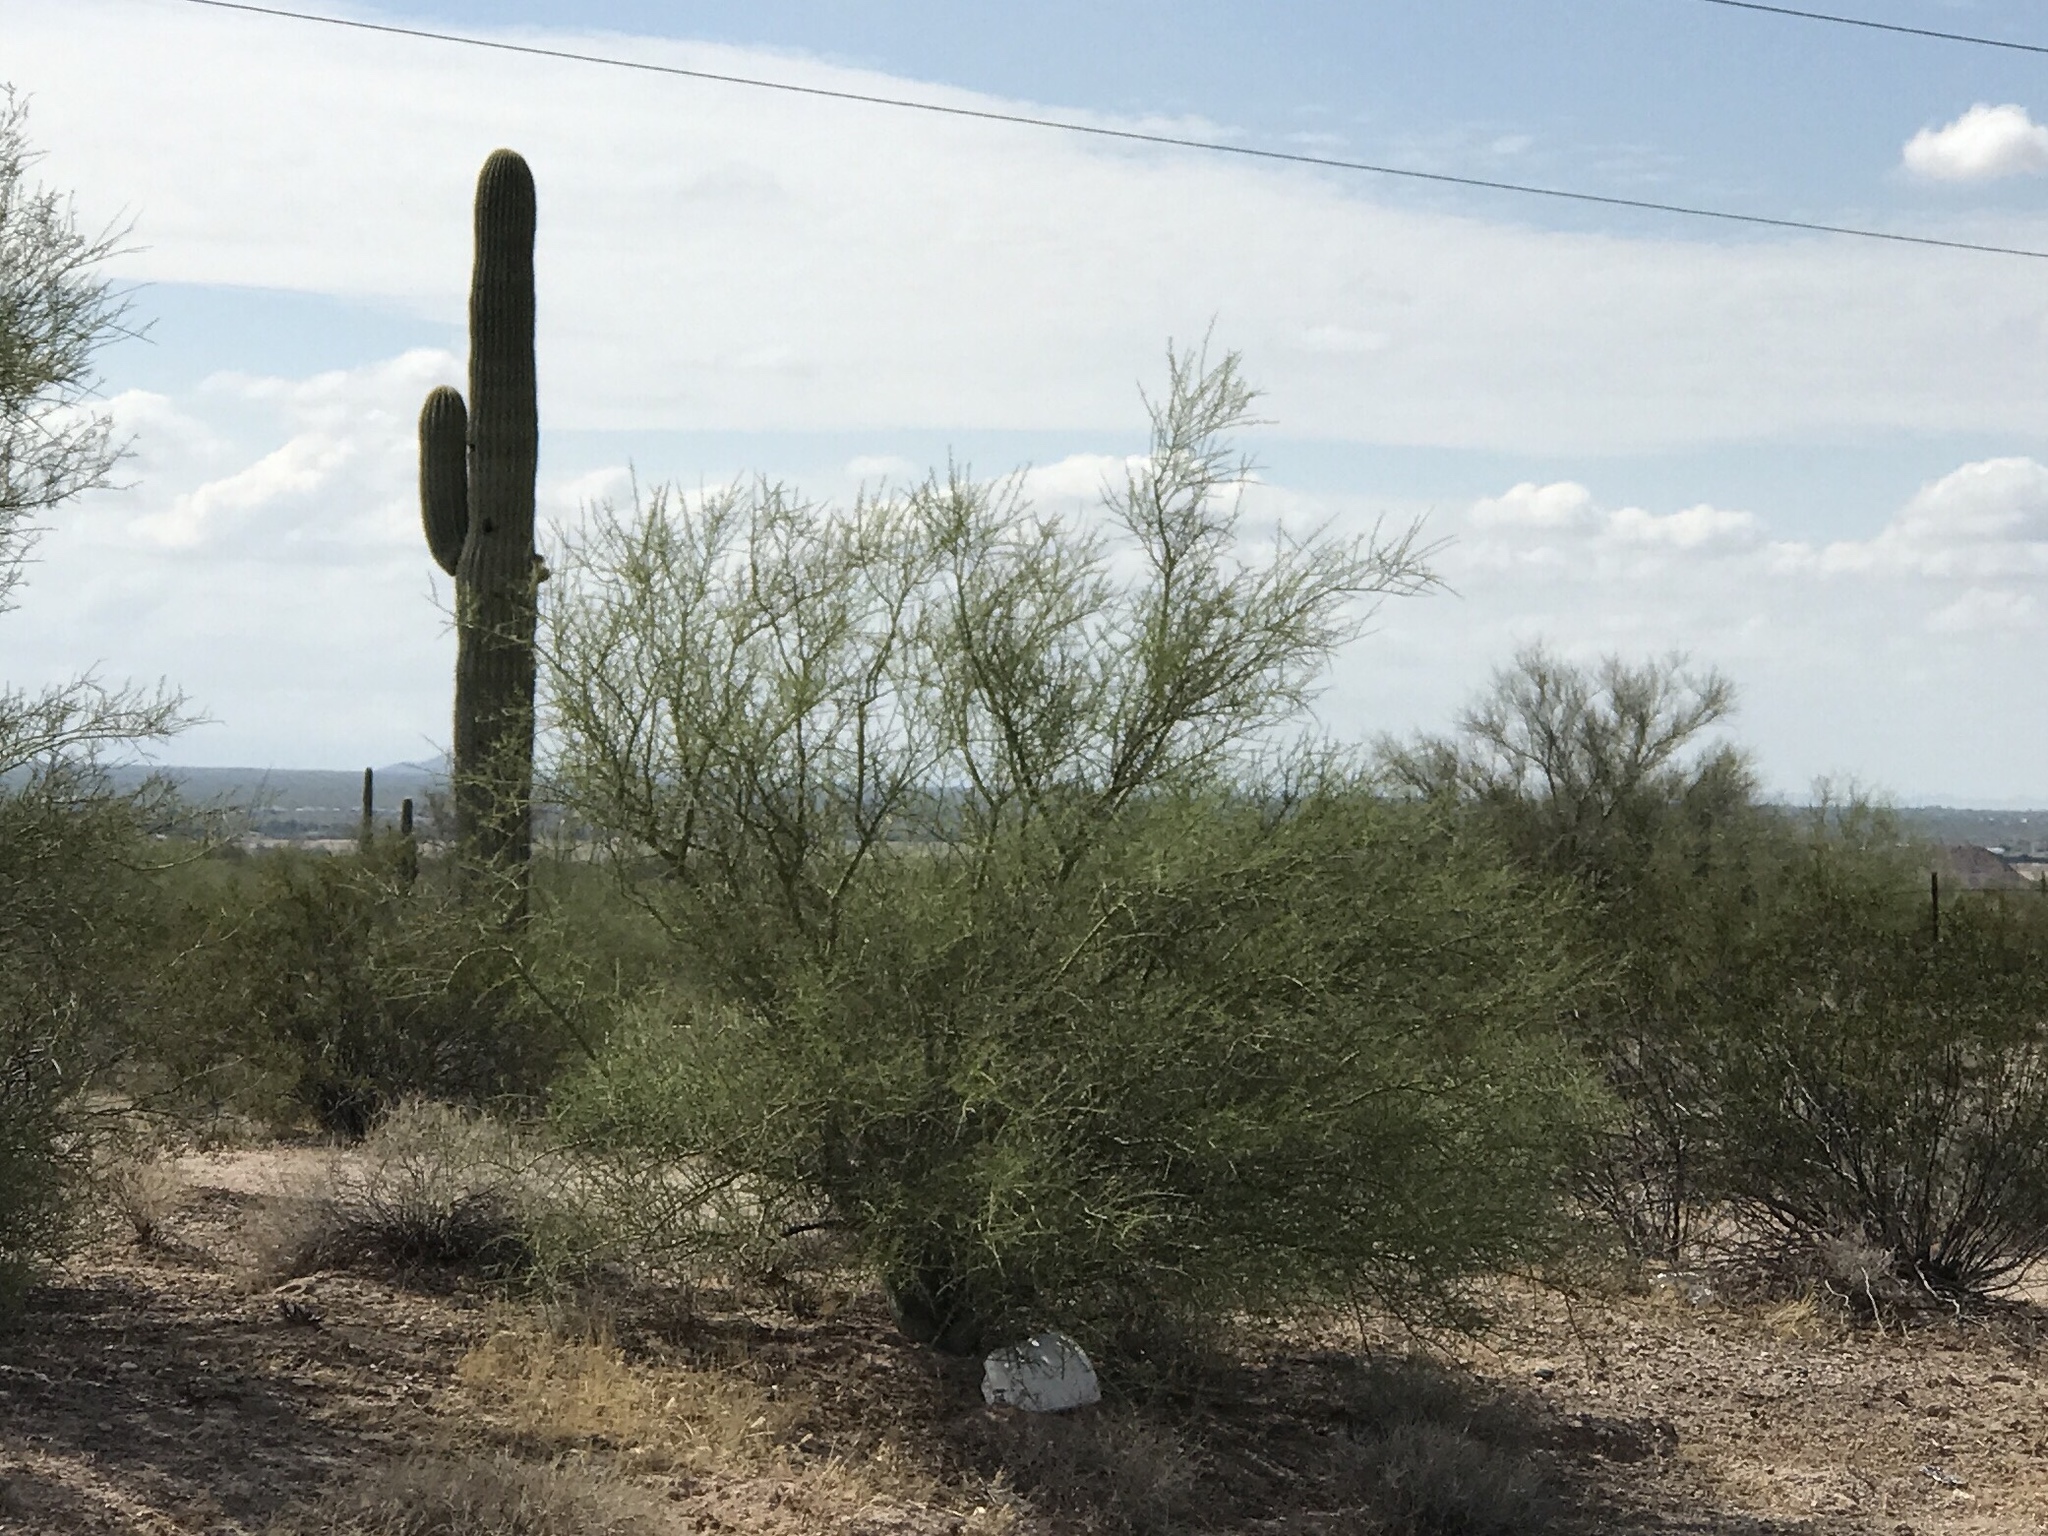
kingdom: Plantae
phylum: Tracheophyta
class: Magnoliopsida
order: Fabales
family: Fabaceae
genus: Parkinsonia
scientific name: Parkinsonia florida
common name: Blue paloverde
